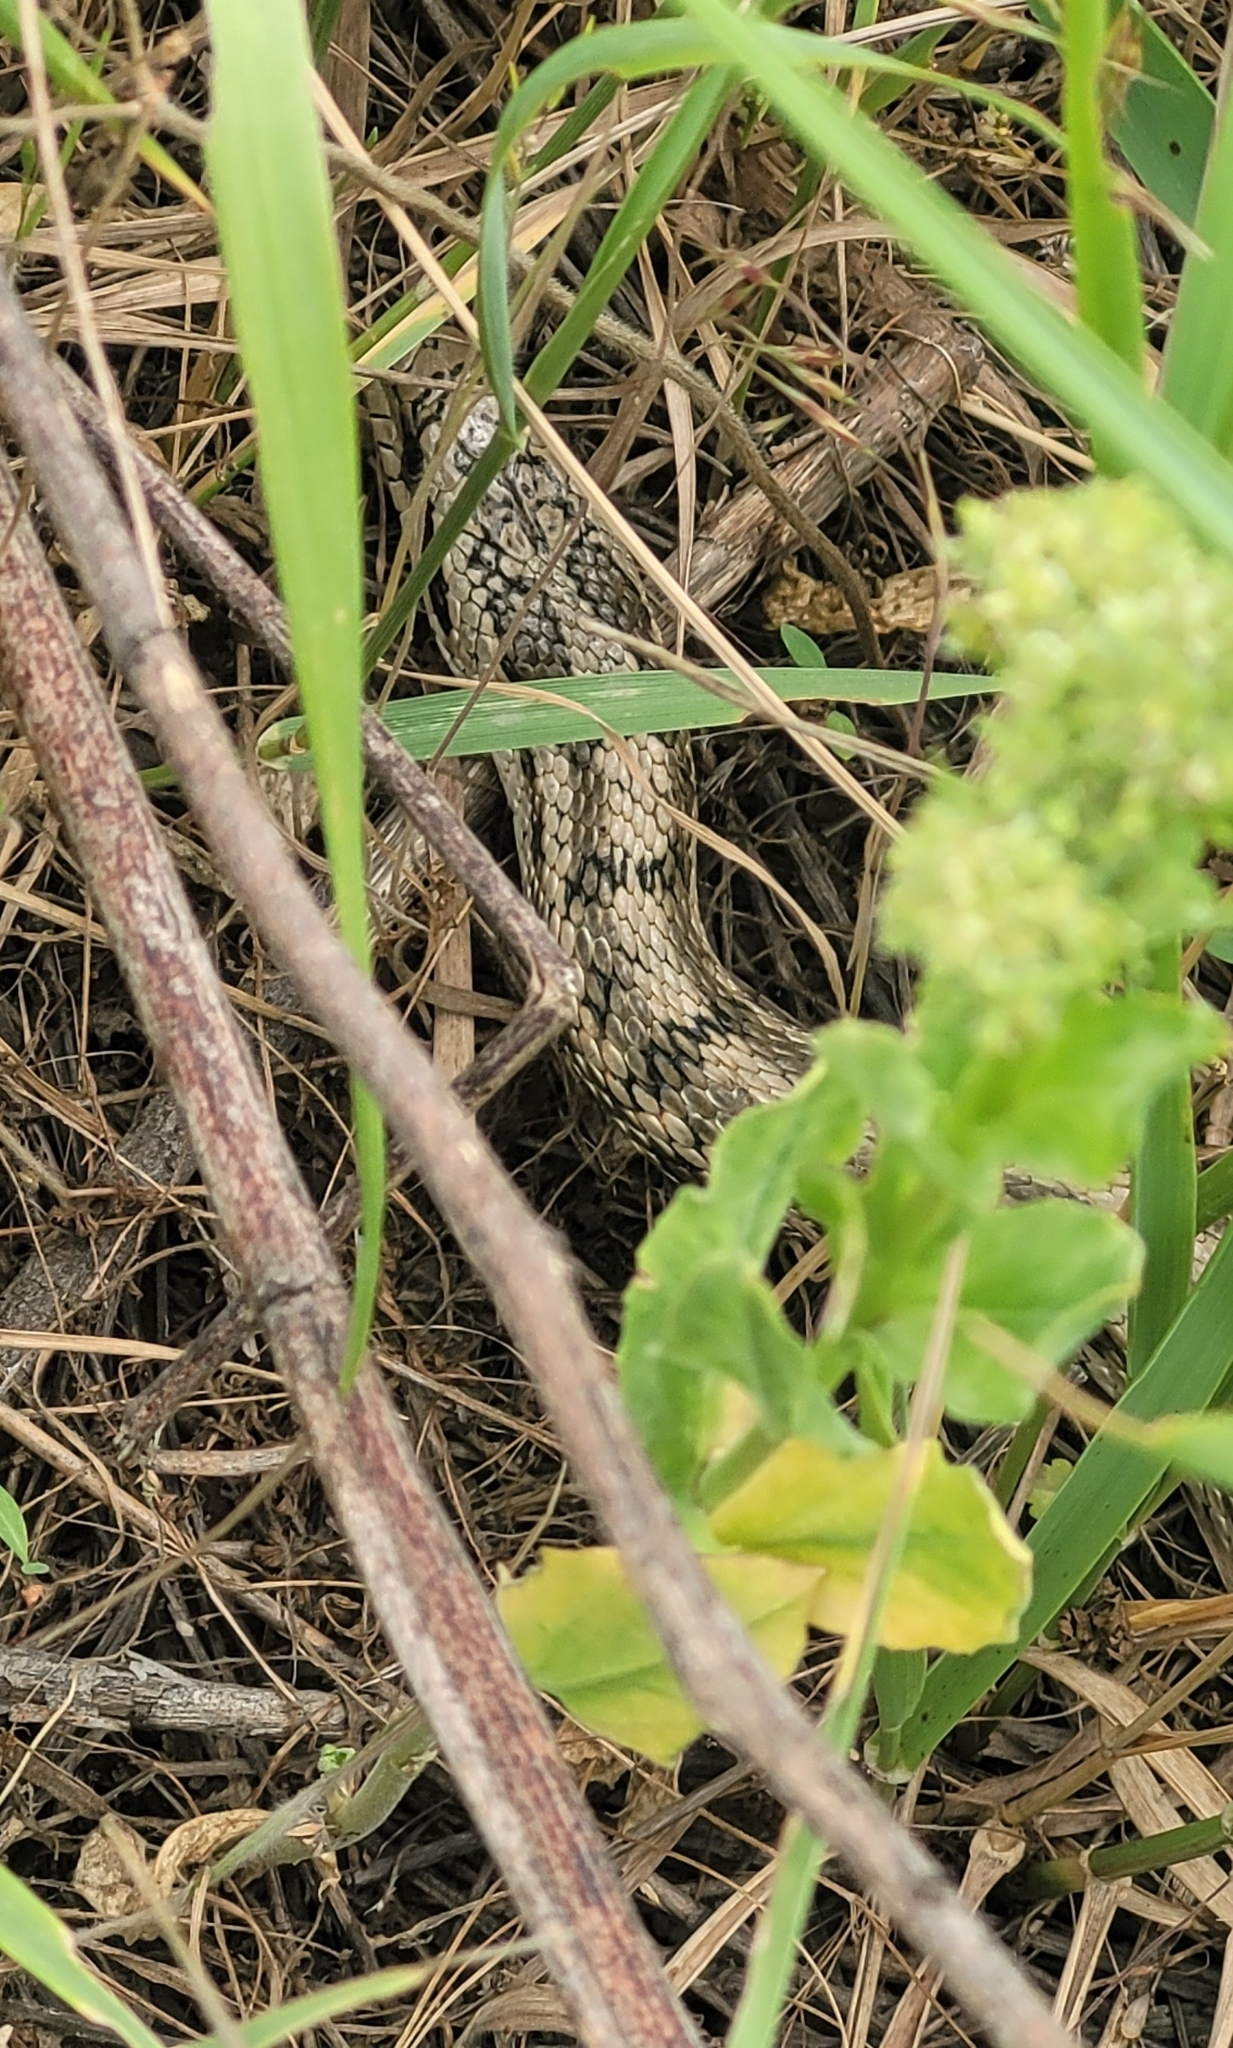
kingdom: Animalia
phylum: Chordata
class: Squamata
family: Colubridae
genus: Elaphe
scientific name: Elaphe dione
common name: Dione ratsnake
